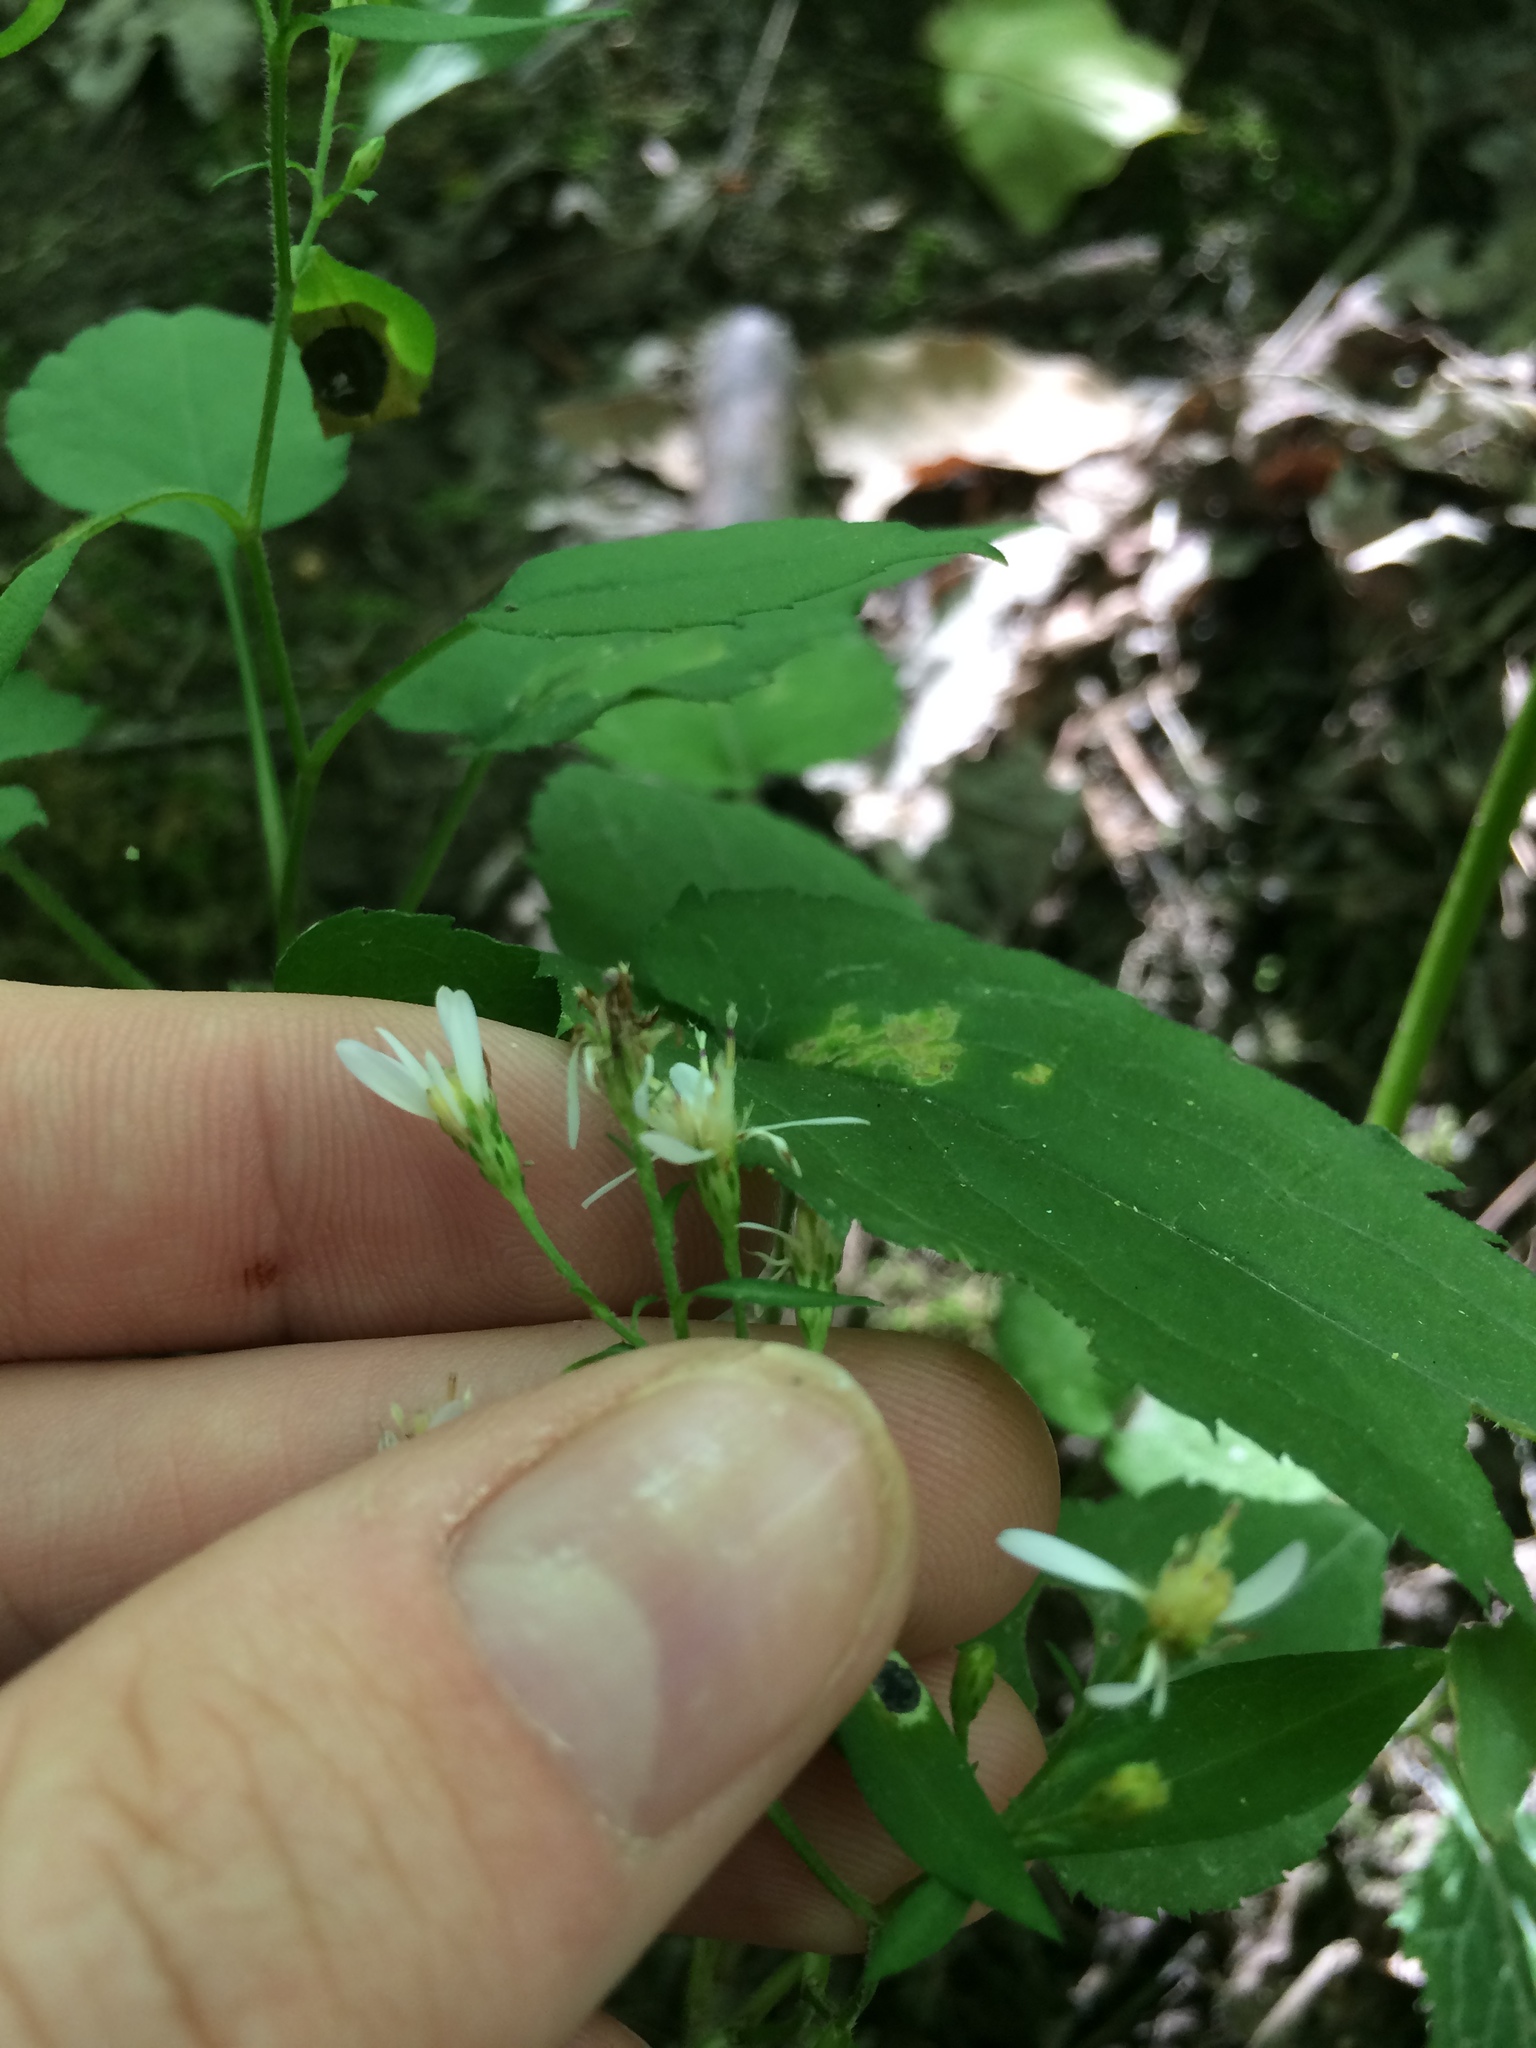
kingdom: Plantae
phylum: Tracheophyta
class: Magnoliopsida
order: Asterales
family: Asteraceae
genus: Symphyotrichum
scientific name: Symphyotrichum cordifolium
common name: Beeweed
